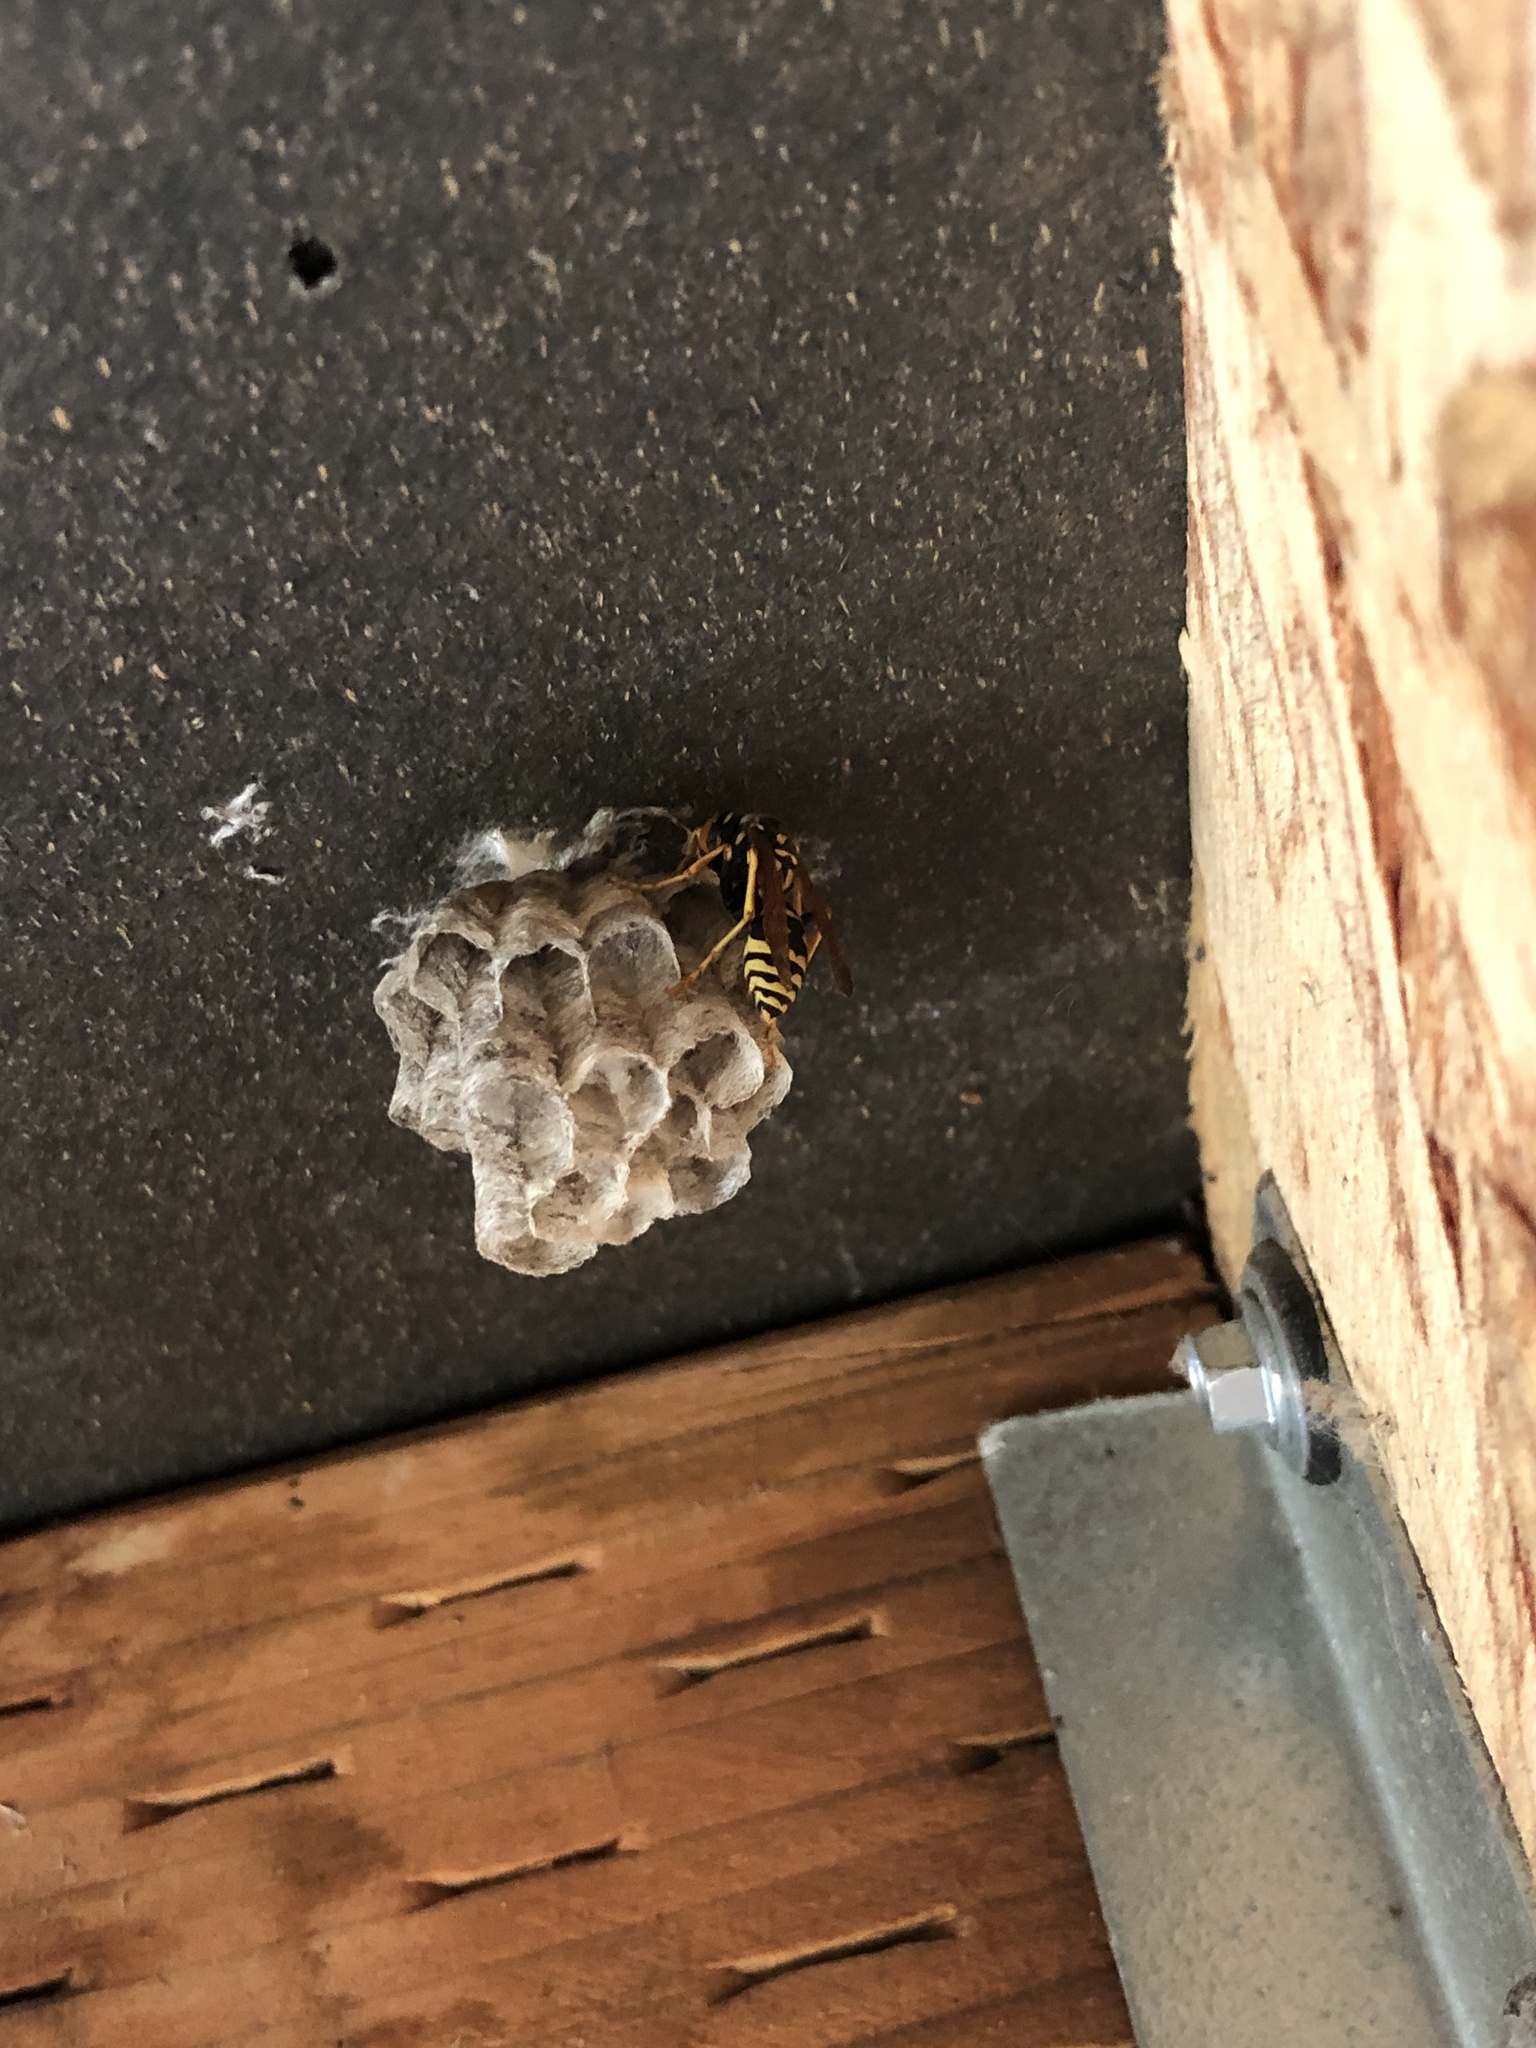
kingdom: Animalia
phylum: Arthropoda
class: Insecta
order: Hymenoptera
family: Eumenidae
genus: Polistes
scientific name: Polistes dominula
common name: Paper wasp
